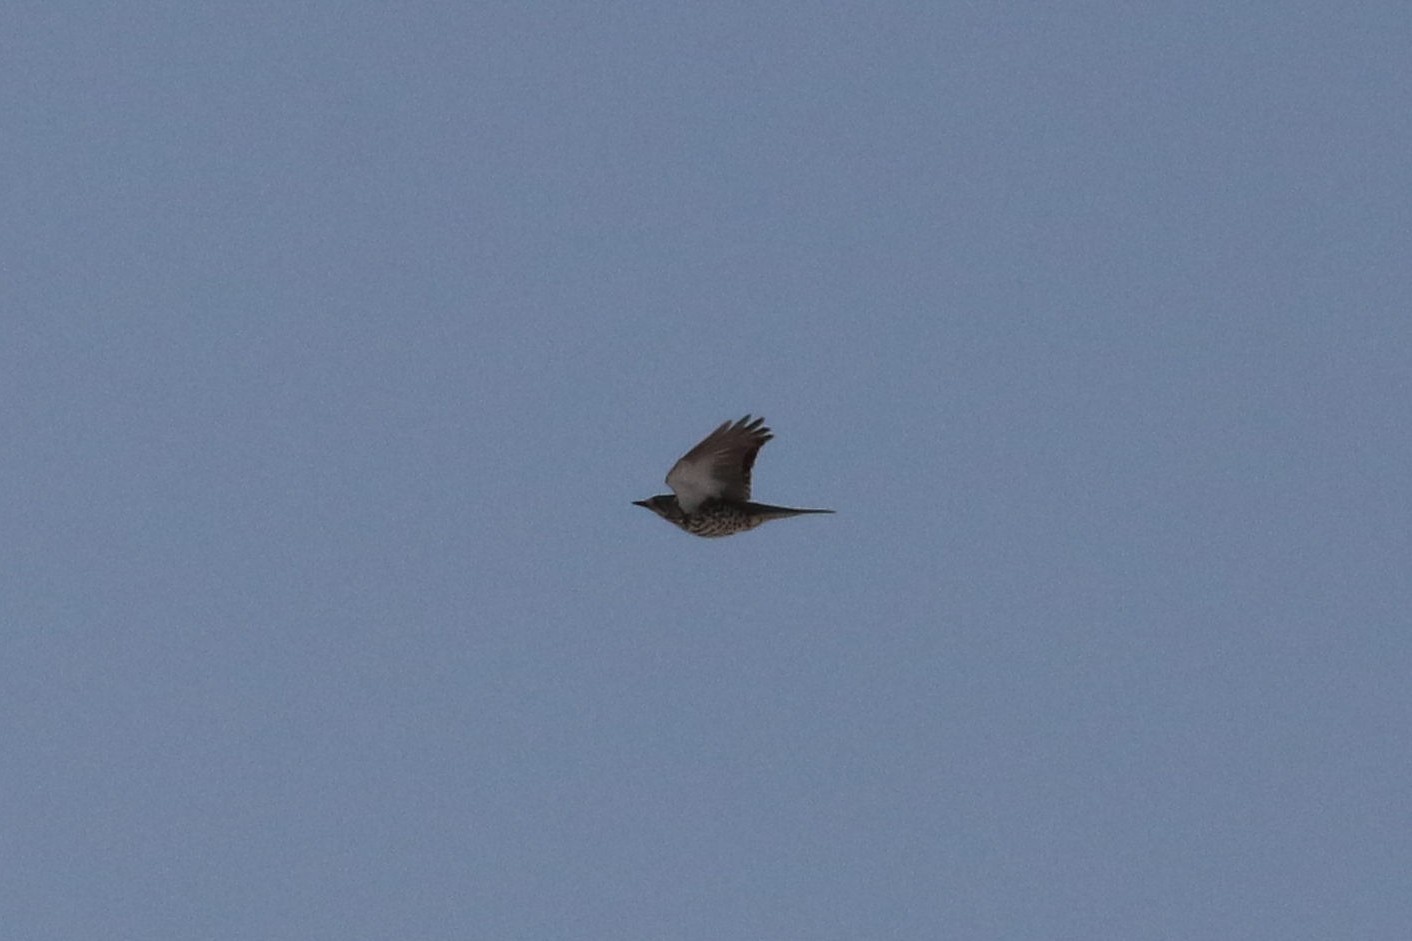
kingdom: Animalia
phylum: Chordata
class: Aves
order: Passeriformes
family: Turdidae
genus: Turdus
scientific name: Turdus viscivorus
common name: Mistle thrush
